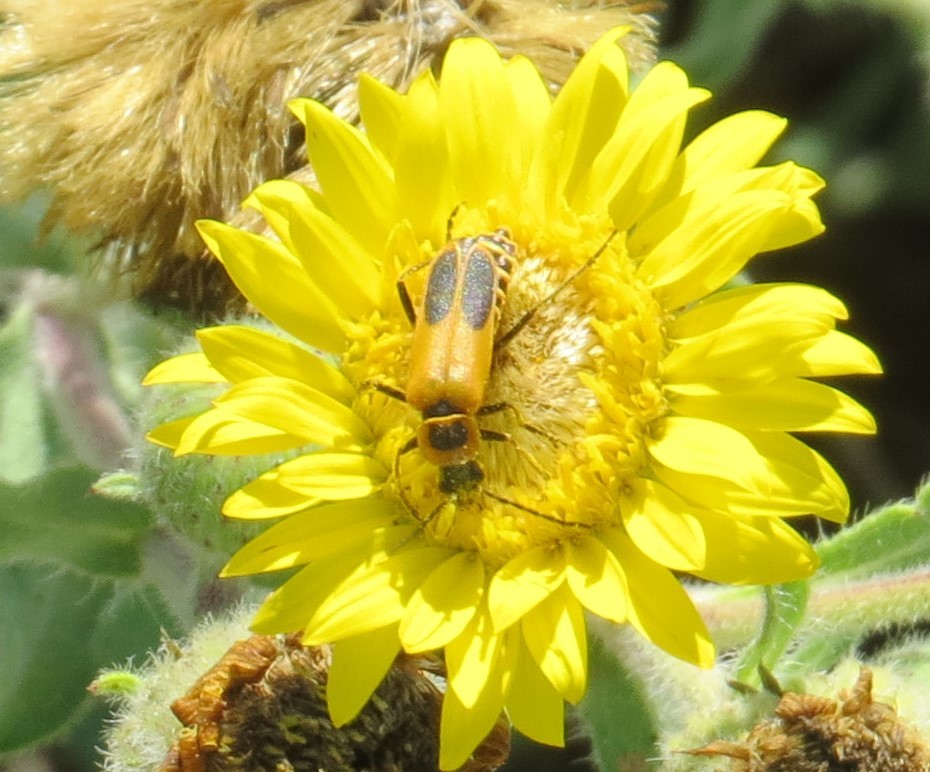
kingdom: Animalia
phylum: Arthropoda
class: Insecta
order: Coleoptera
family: Cantharidae
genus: Chauliognathus
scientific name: Chauliognathus pensylvanicus
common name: Goldenrod soldier beetle
